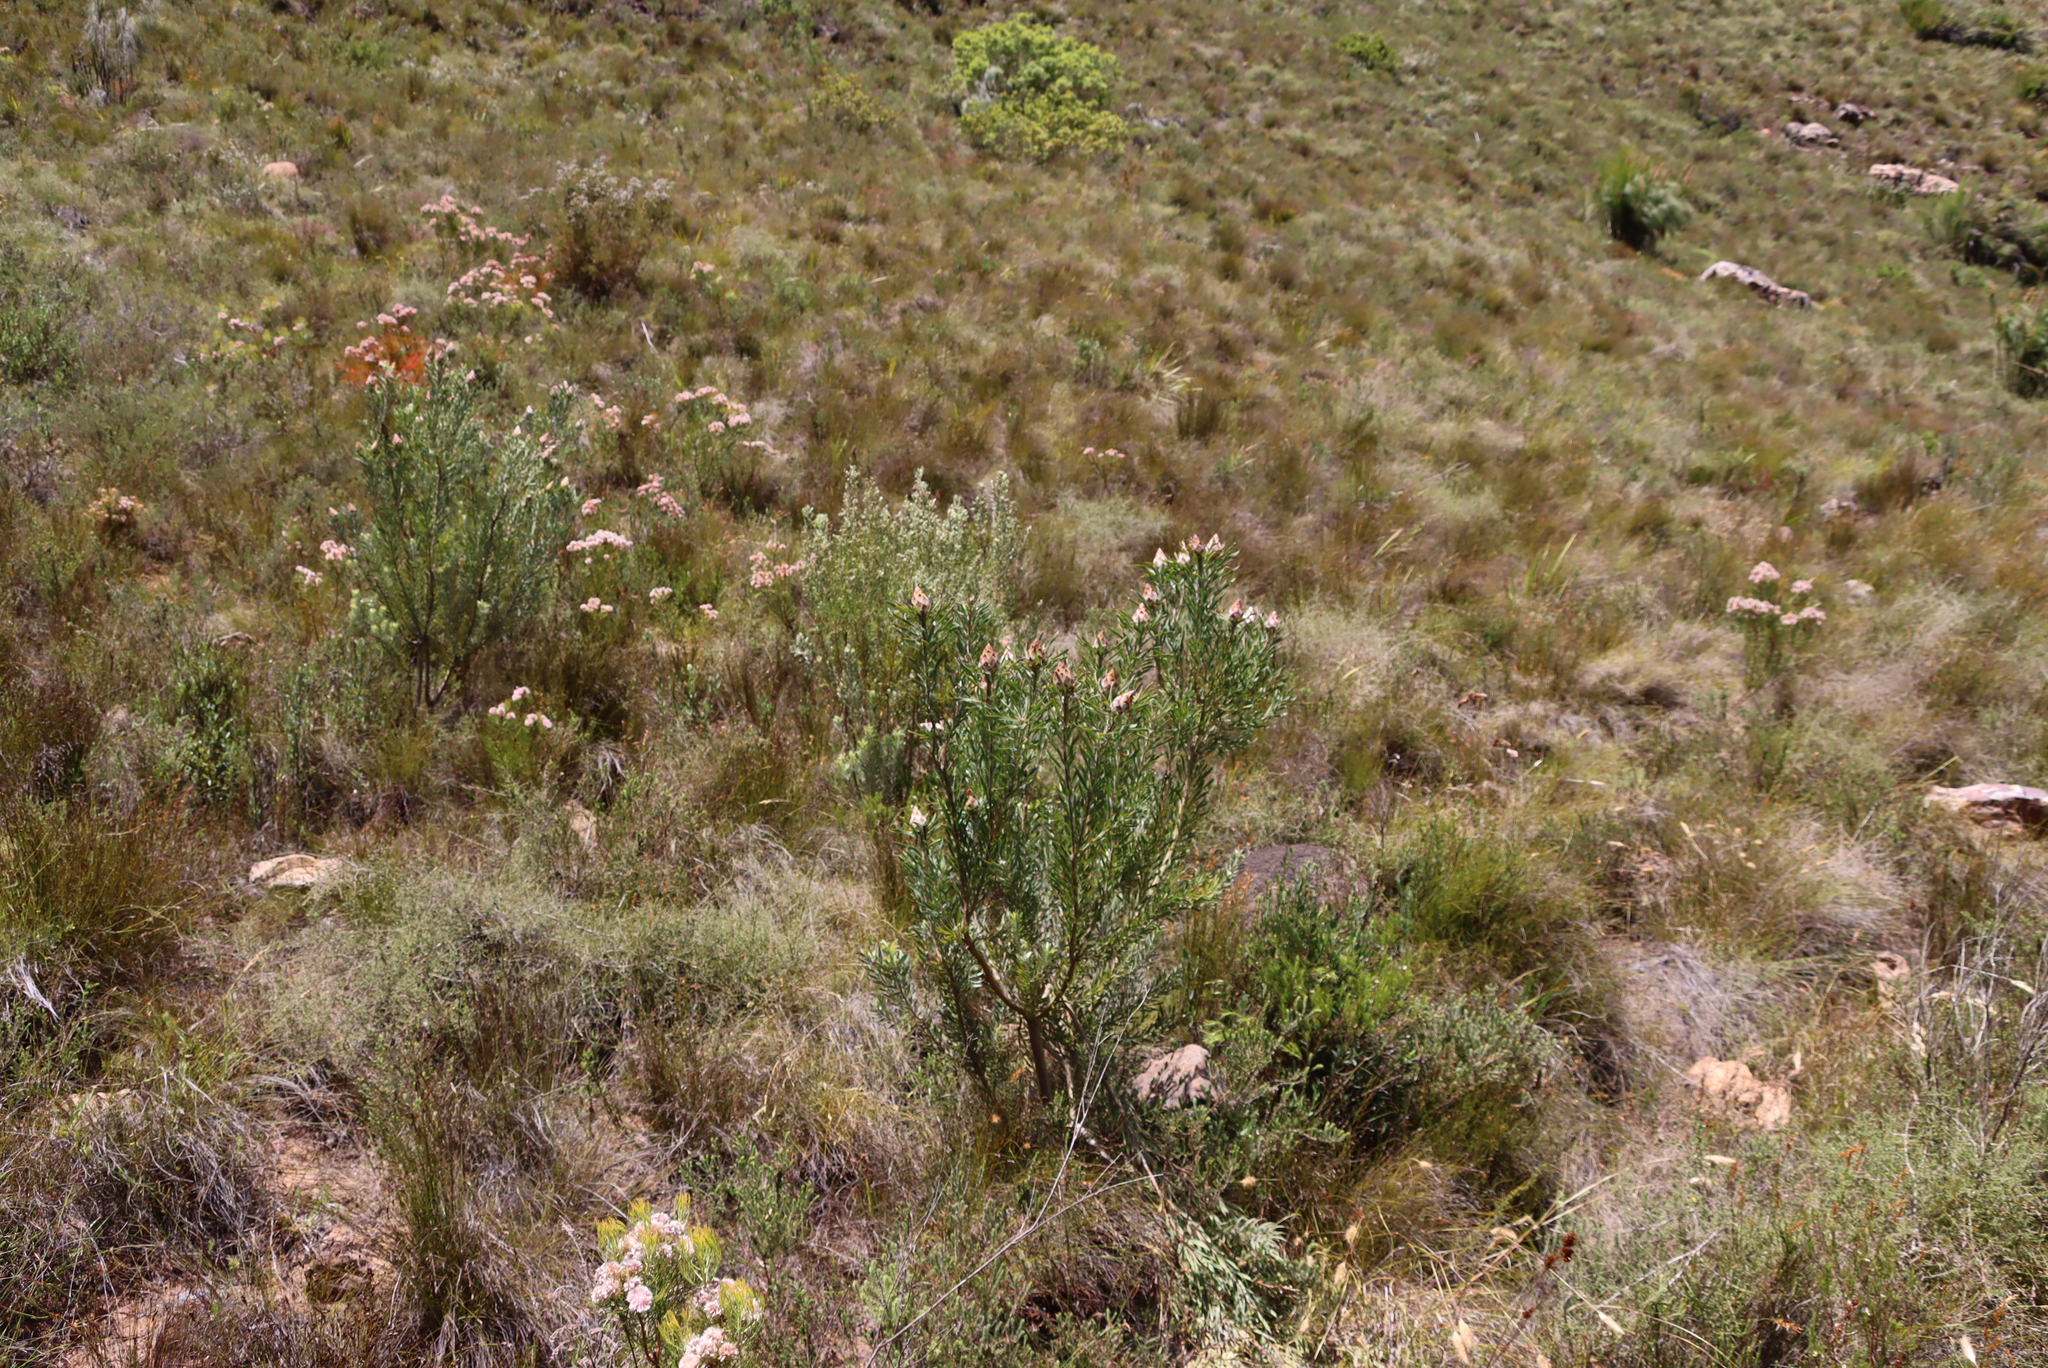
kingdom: Plantae
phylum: Tracheophyta
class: Magnoliopsida
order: Proteales
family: Proteaceae
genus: Leucadendron
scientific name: Leucadendron rubrum
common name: Spinning top
